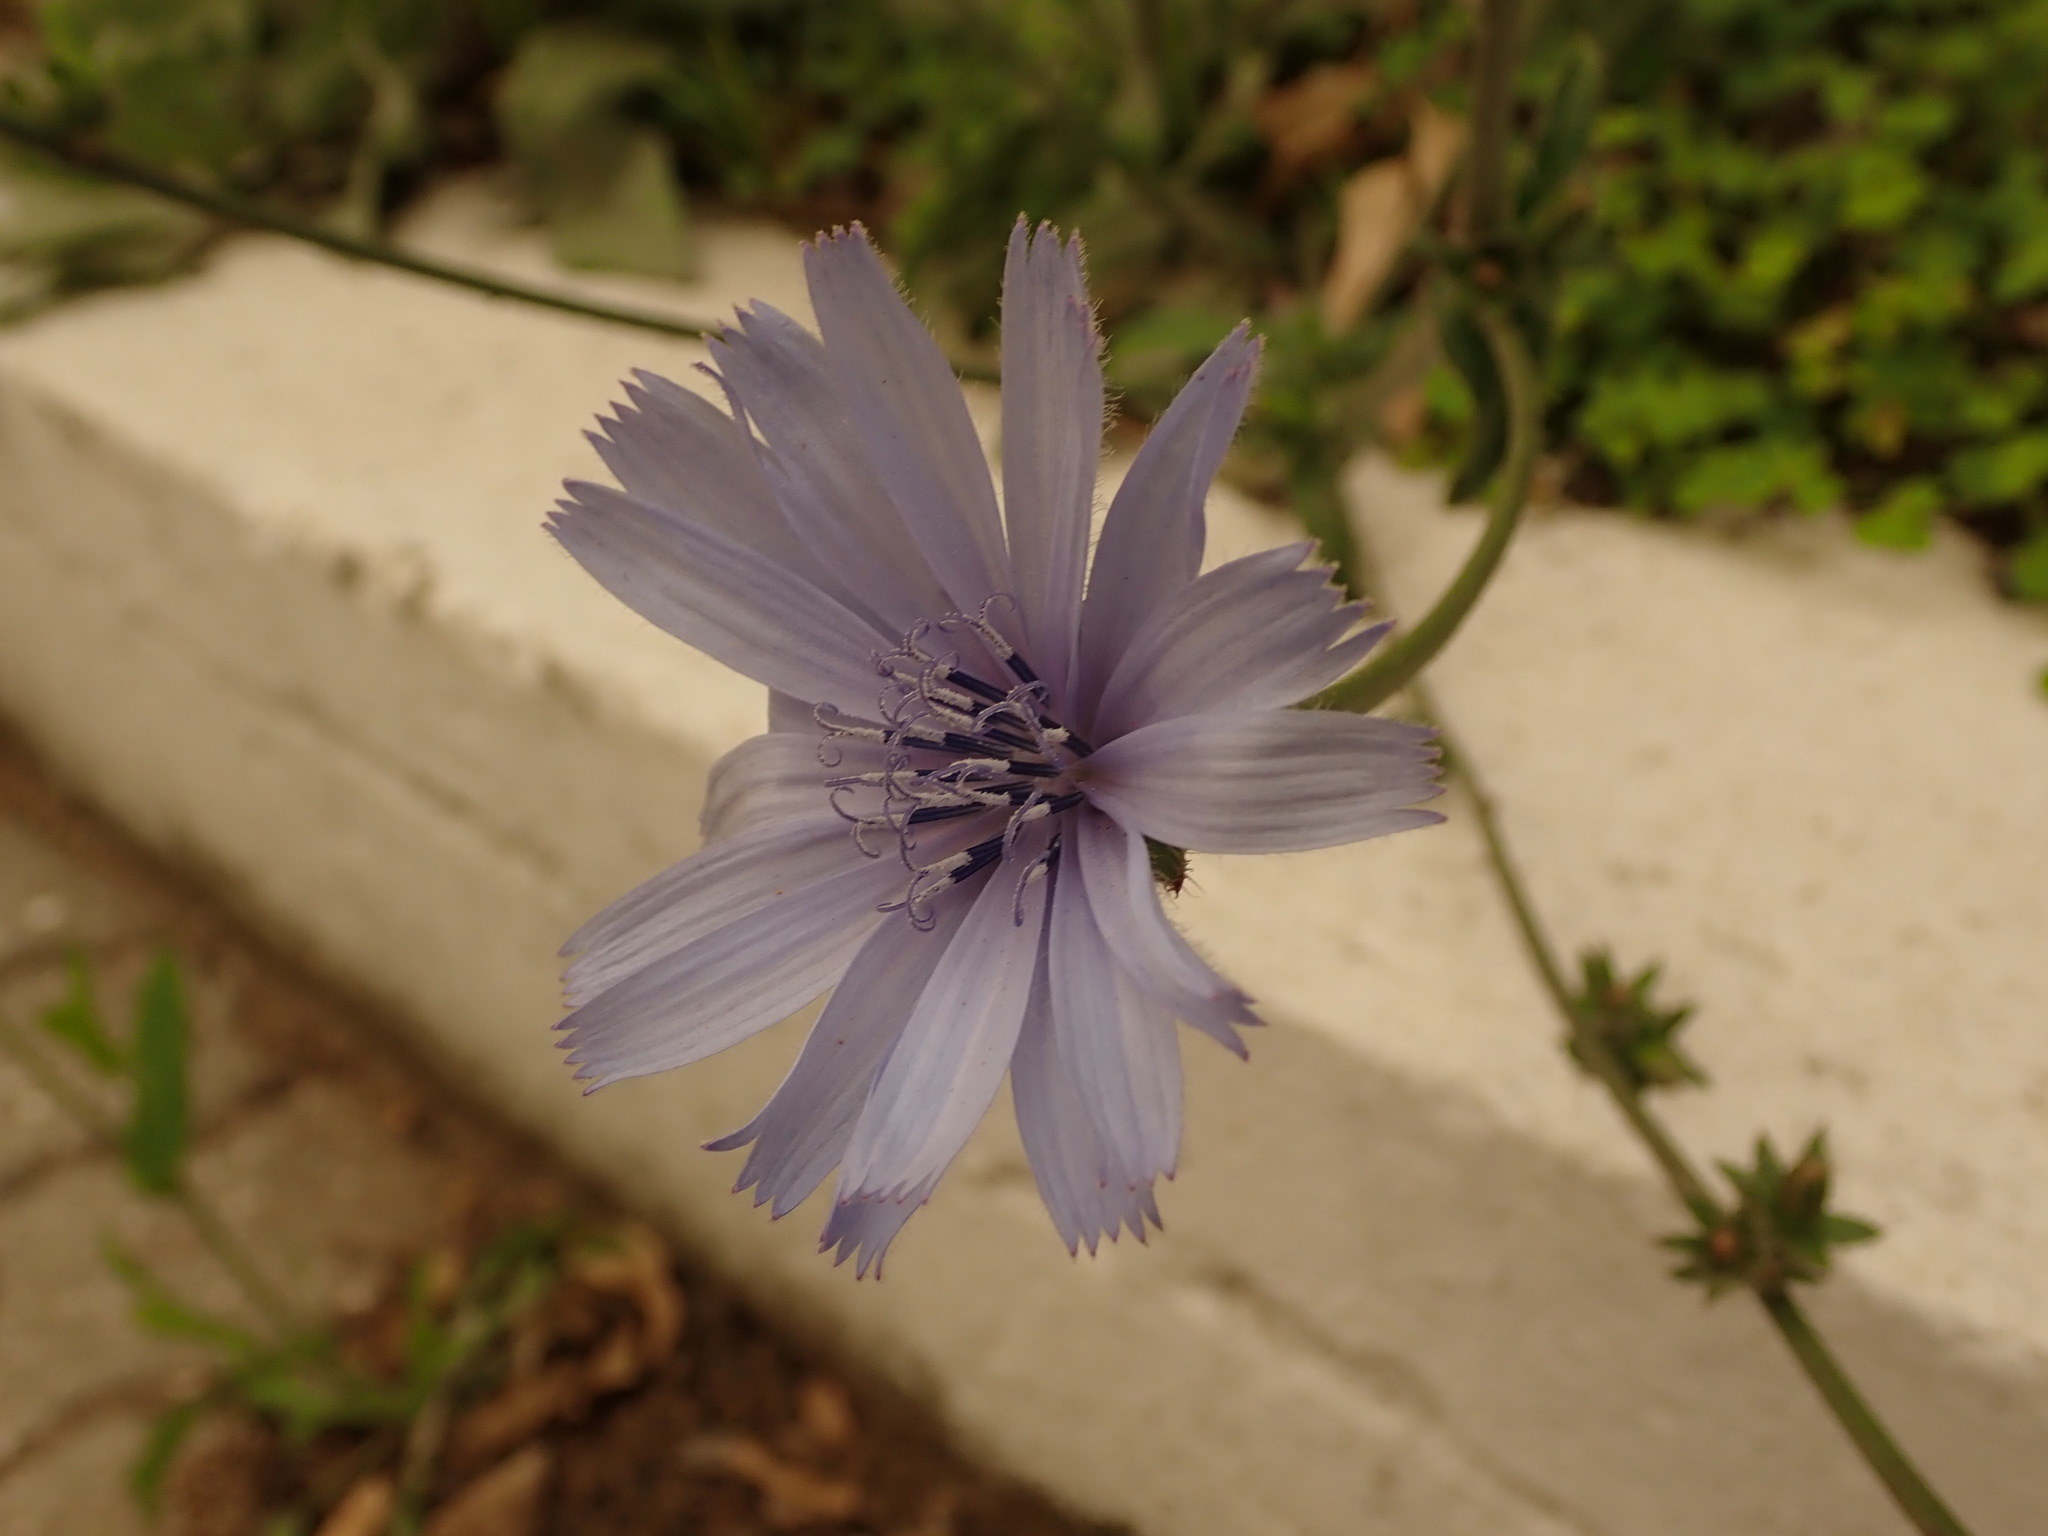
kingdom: Plantae
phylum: Tracheophyta
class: Magnoliopsida
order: Asterales
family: Asteraceae
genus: Cichorium
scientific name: Cichorium intybus
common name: Chicory
